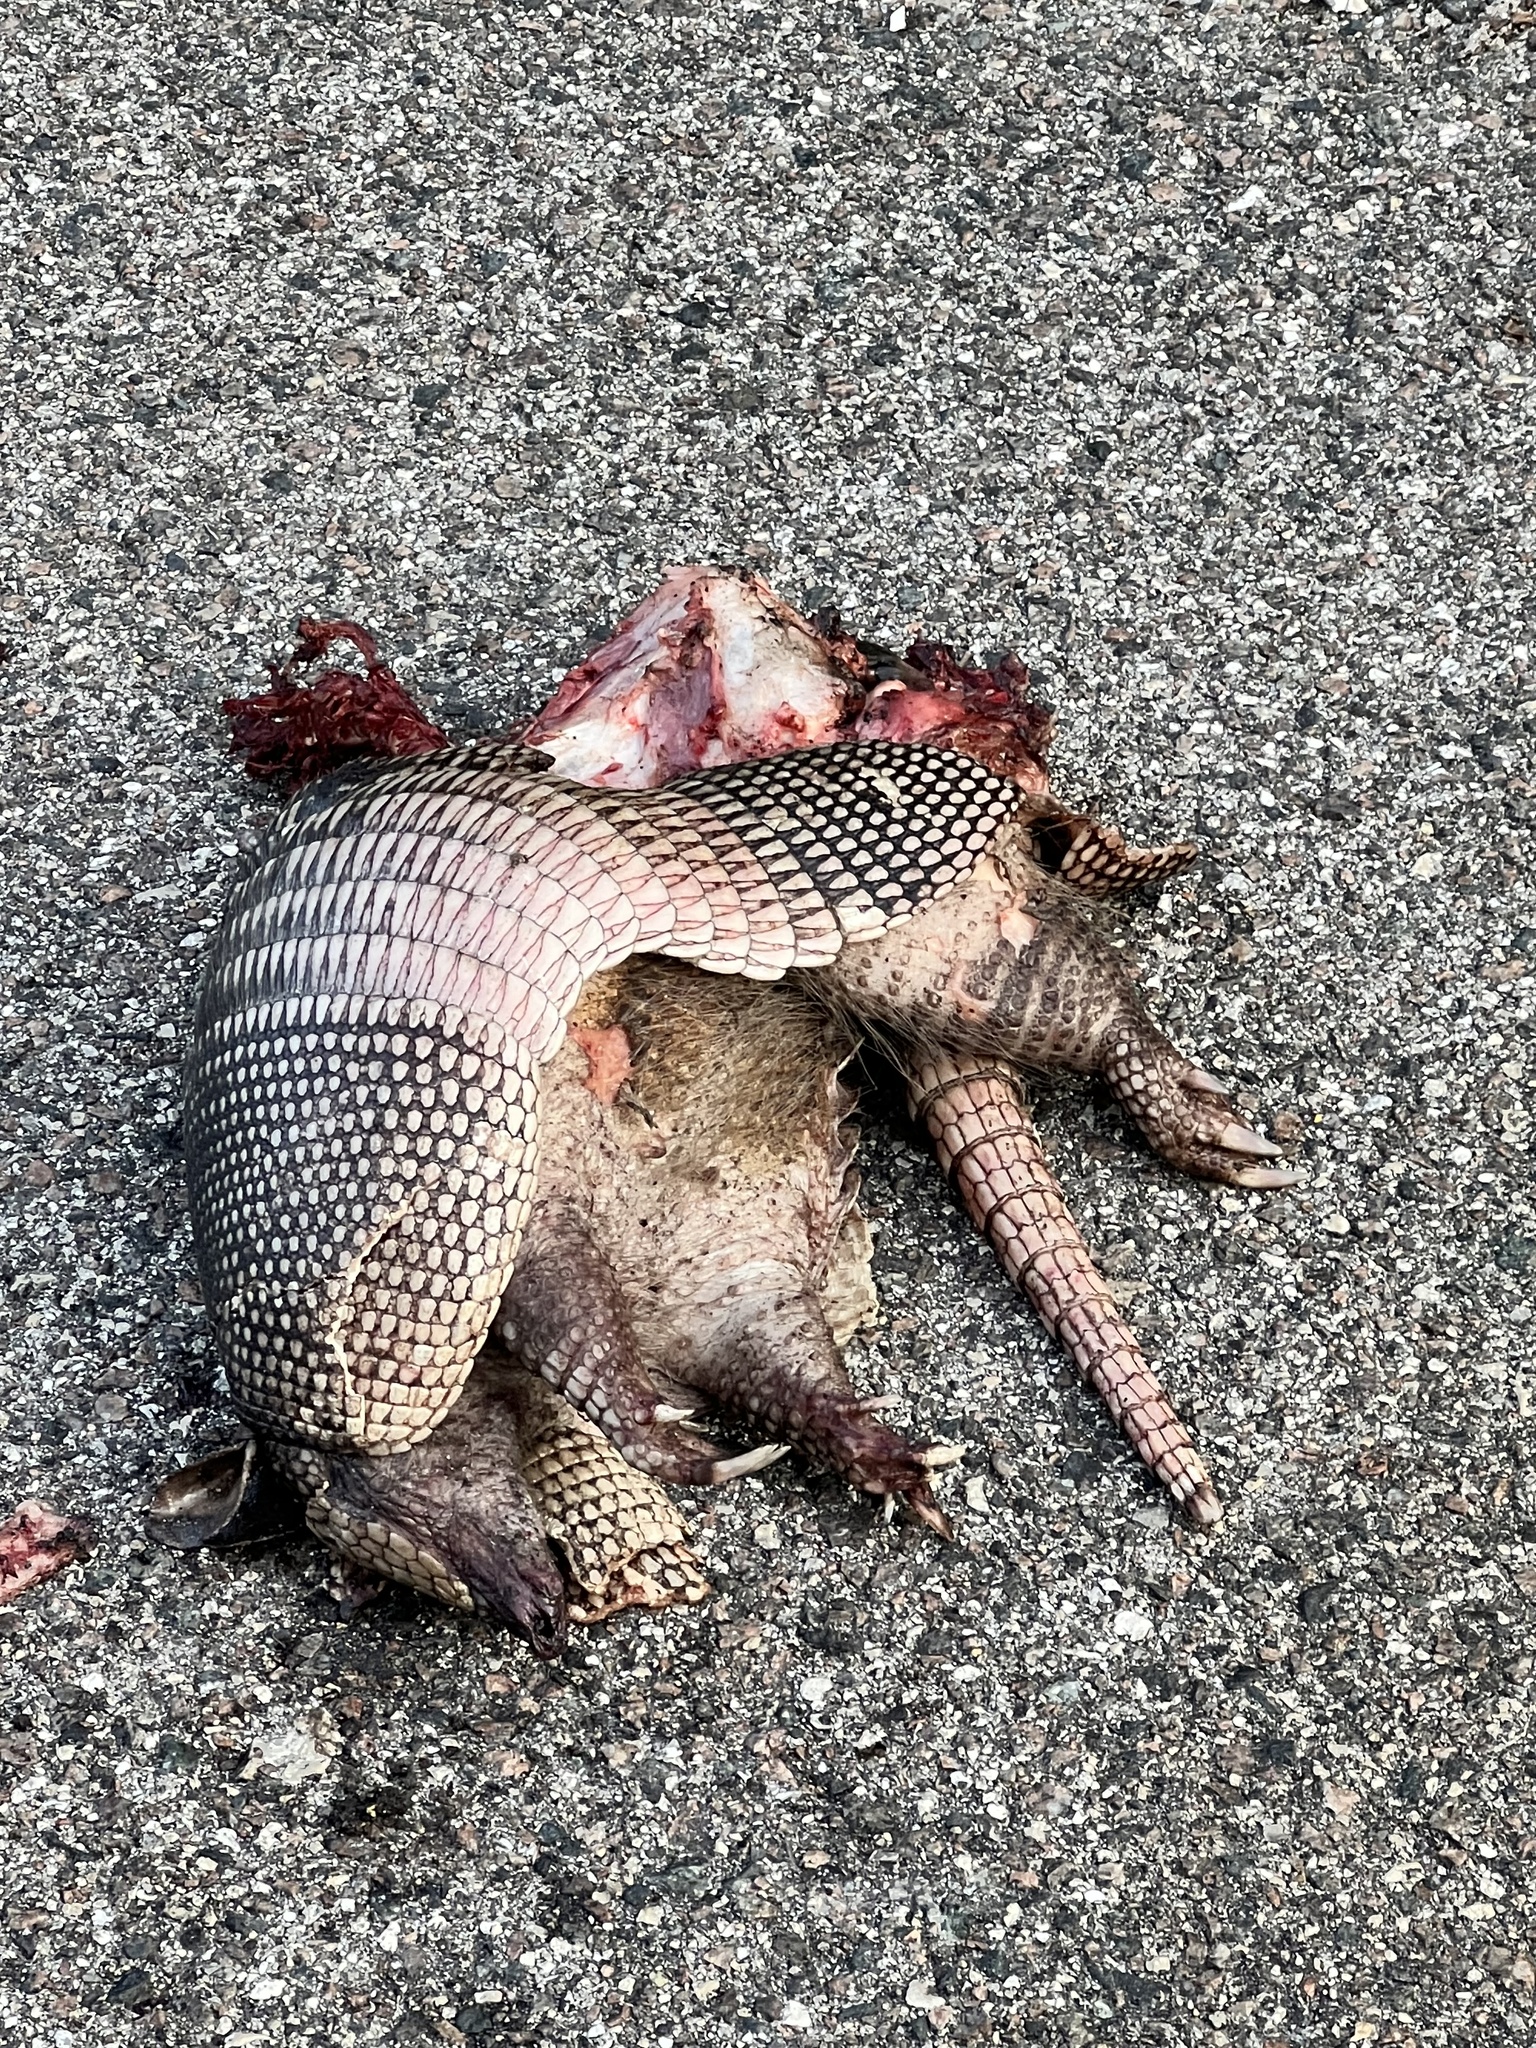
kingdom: Animalia
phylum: Chordata
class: Mammalia
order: Cingulata
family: Dasypodidae
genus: Dasypus
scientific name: Dasypus novemcinctus
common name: Nine-banded armadillo
